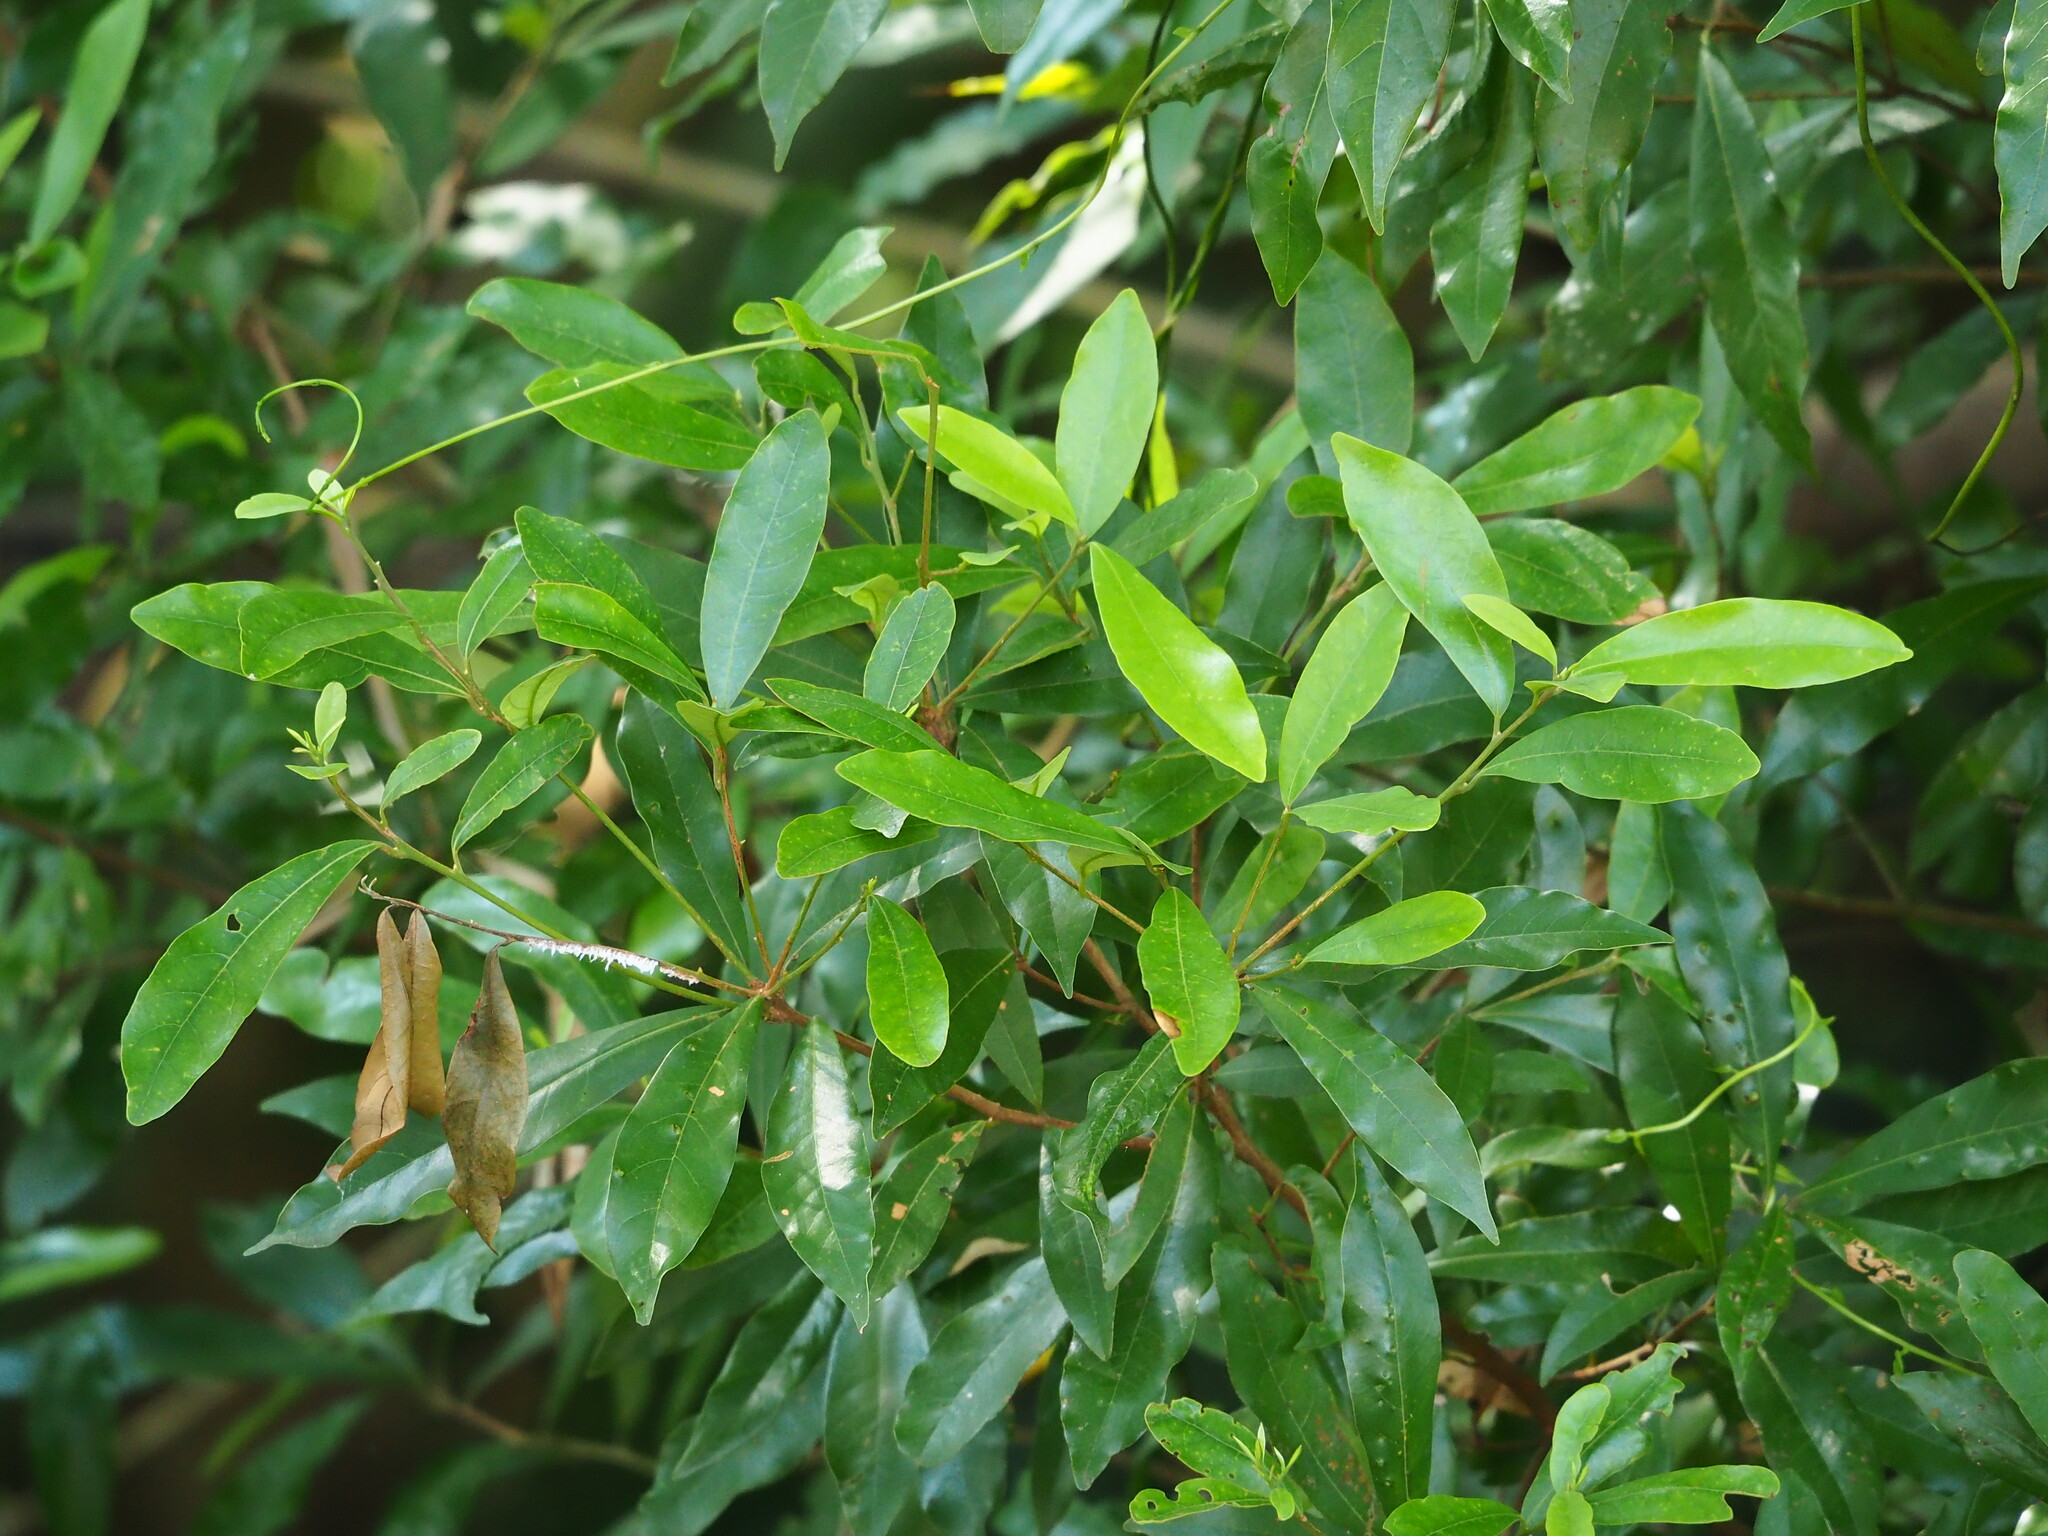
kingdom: Plantae
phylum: Tracheophyta
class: Magnoliopsida
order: Laurales
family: Lauraceae
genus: Litsea
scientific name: Litsea hypophaea
